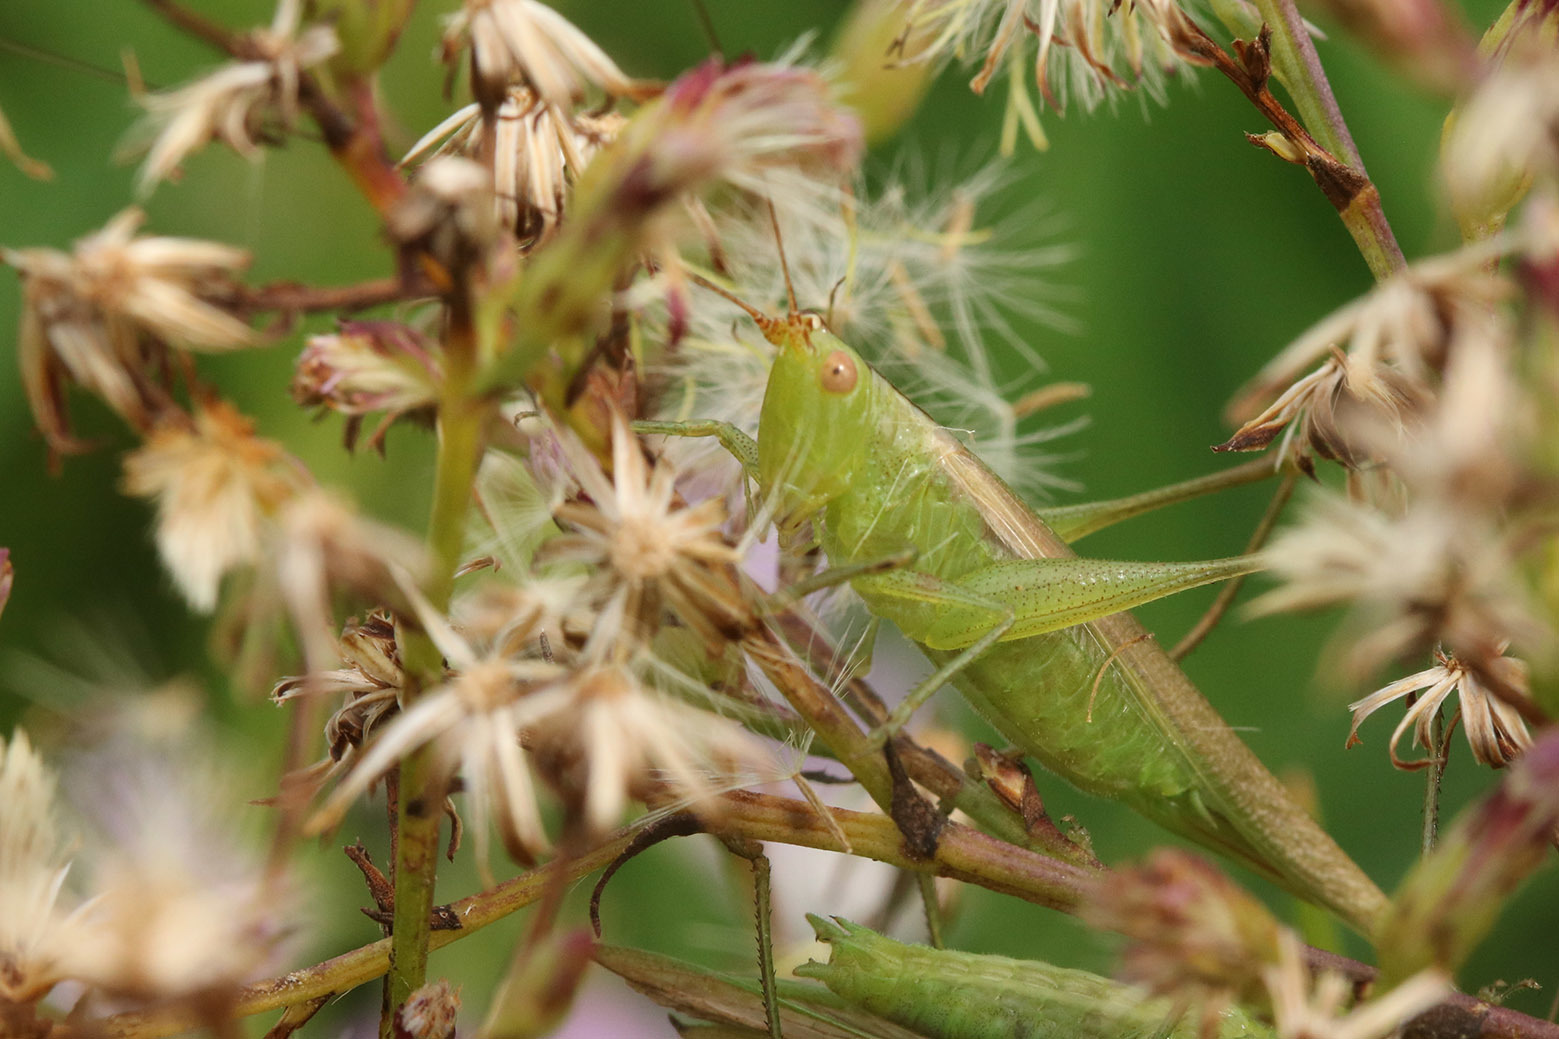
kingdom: Animalia
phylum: Arthropoda
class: Insecta
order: Orthoptera
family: Tettigoniidae
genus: Conocephalus
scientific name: Conocephalus longipes
